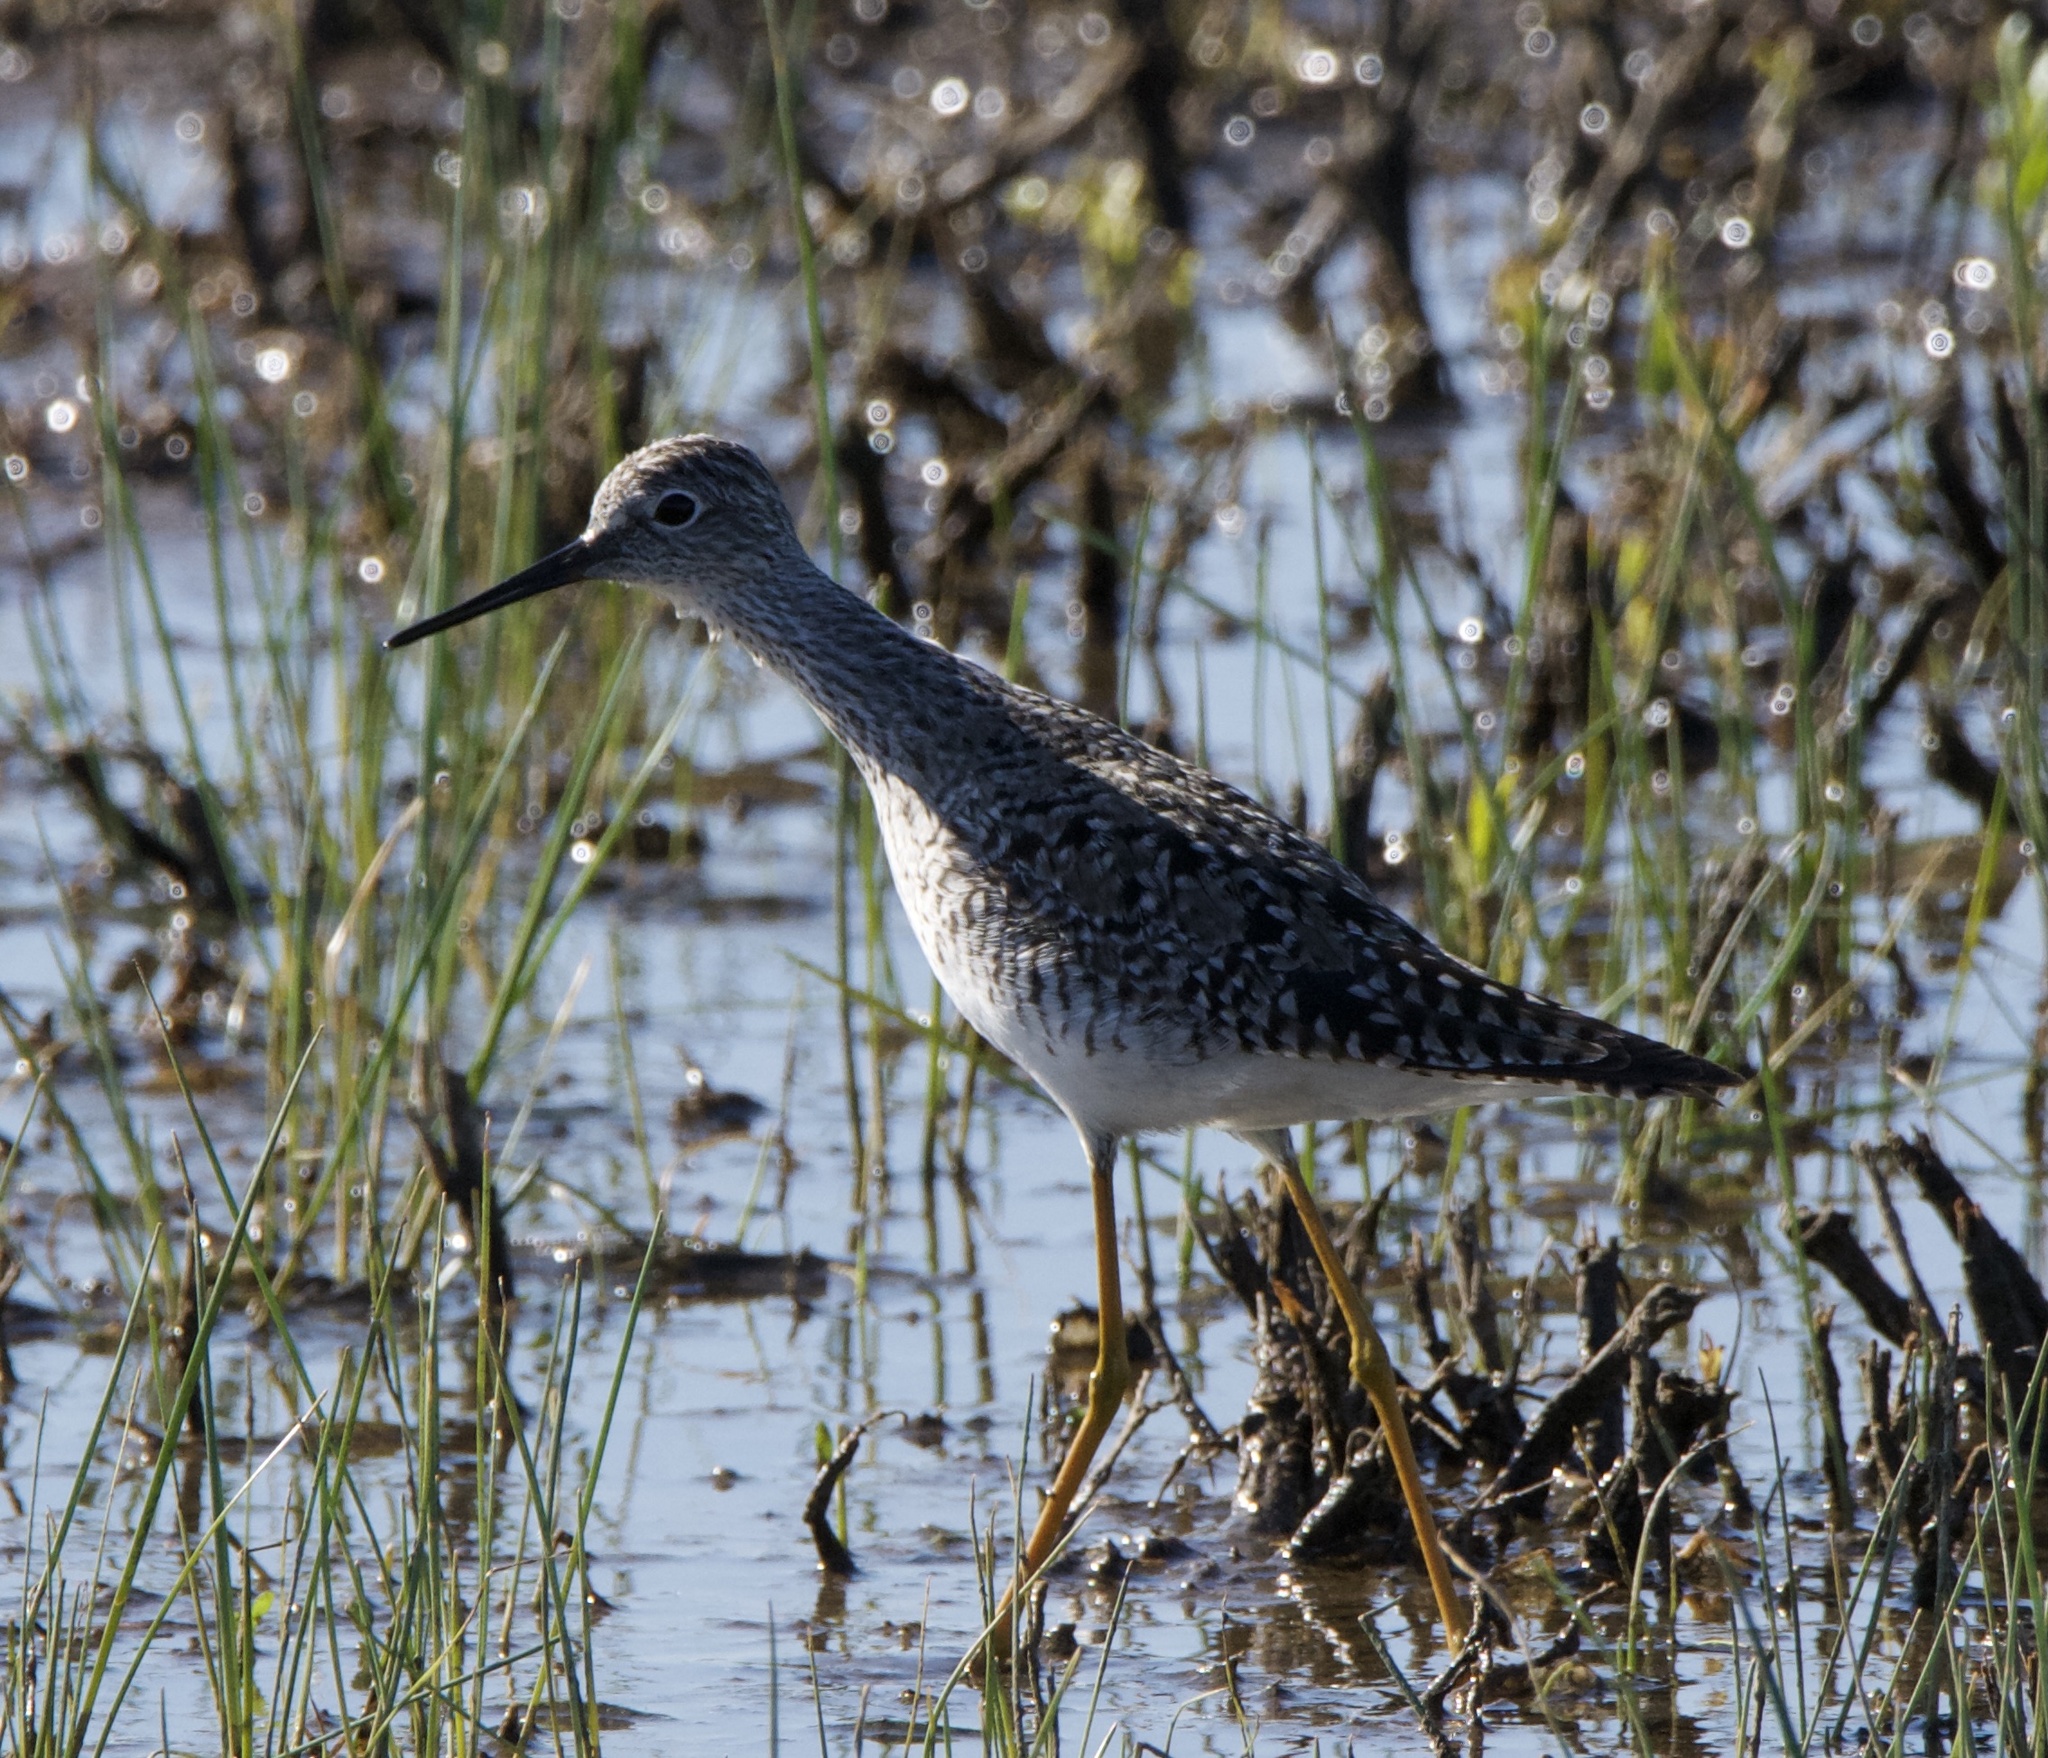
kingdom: Animalia
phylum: Chordata
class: Aves
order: Charadriiformes
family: Scolopacidae
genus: Tringa
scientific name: Tringa flavipes
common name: Lesser yellowlegs
